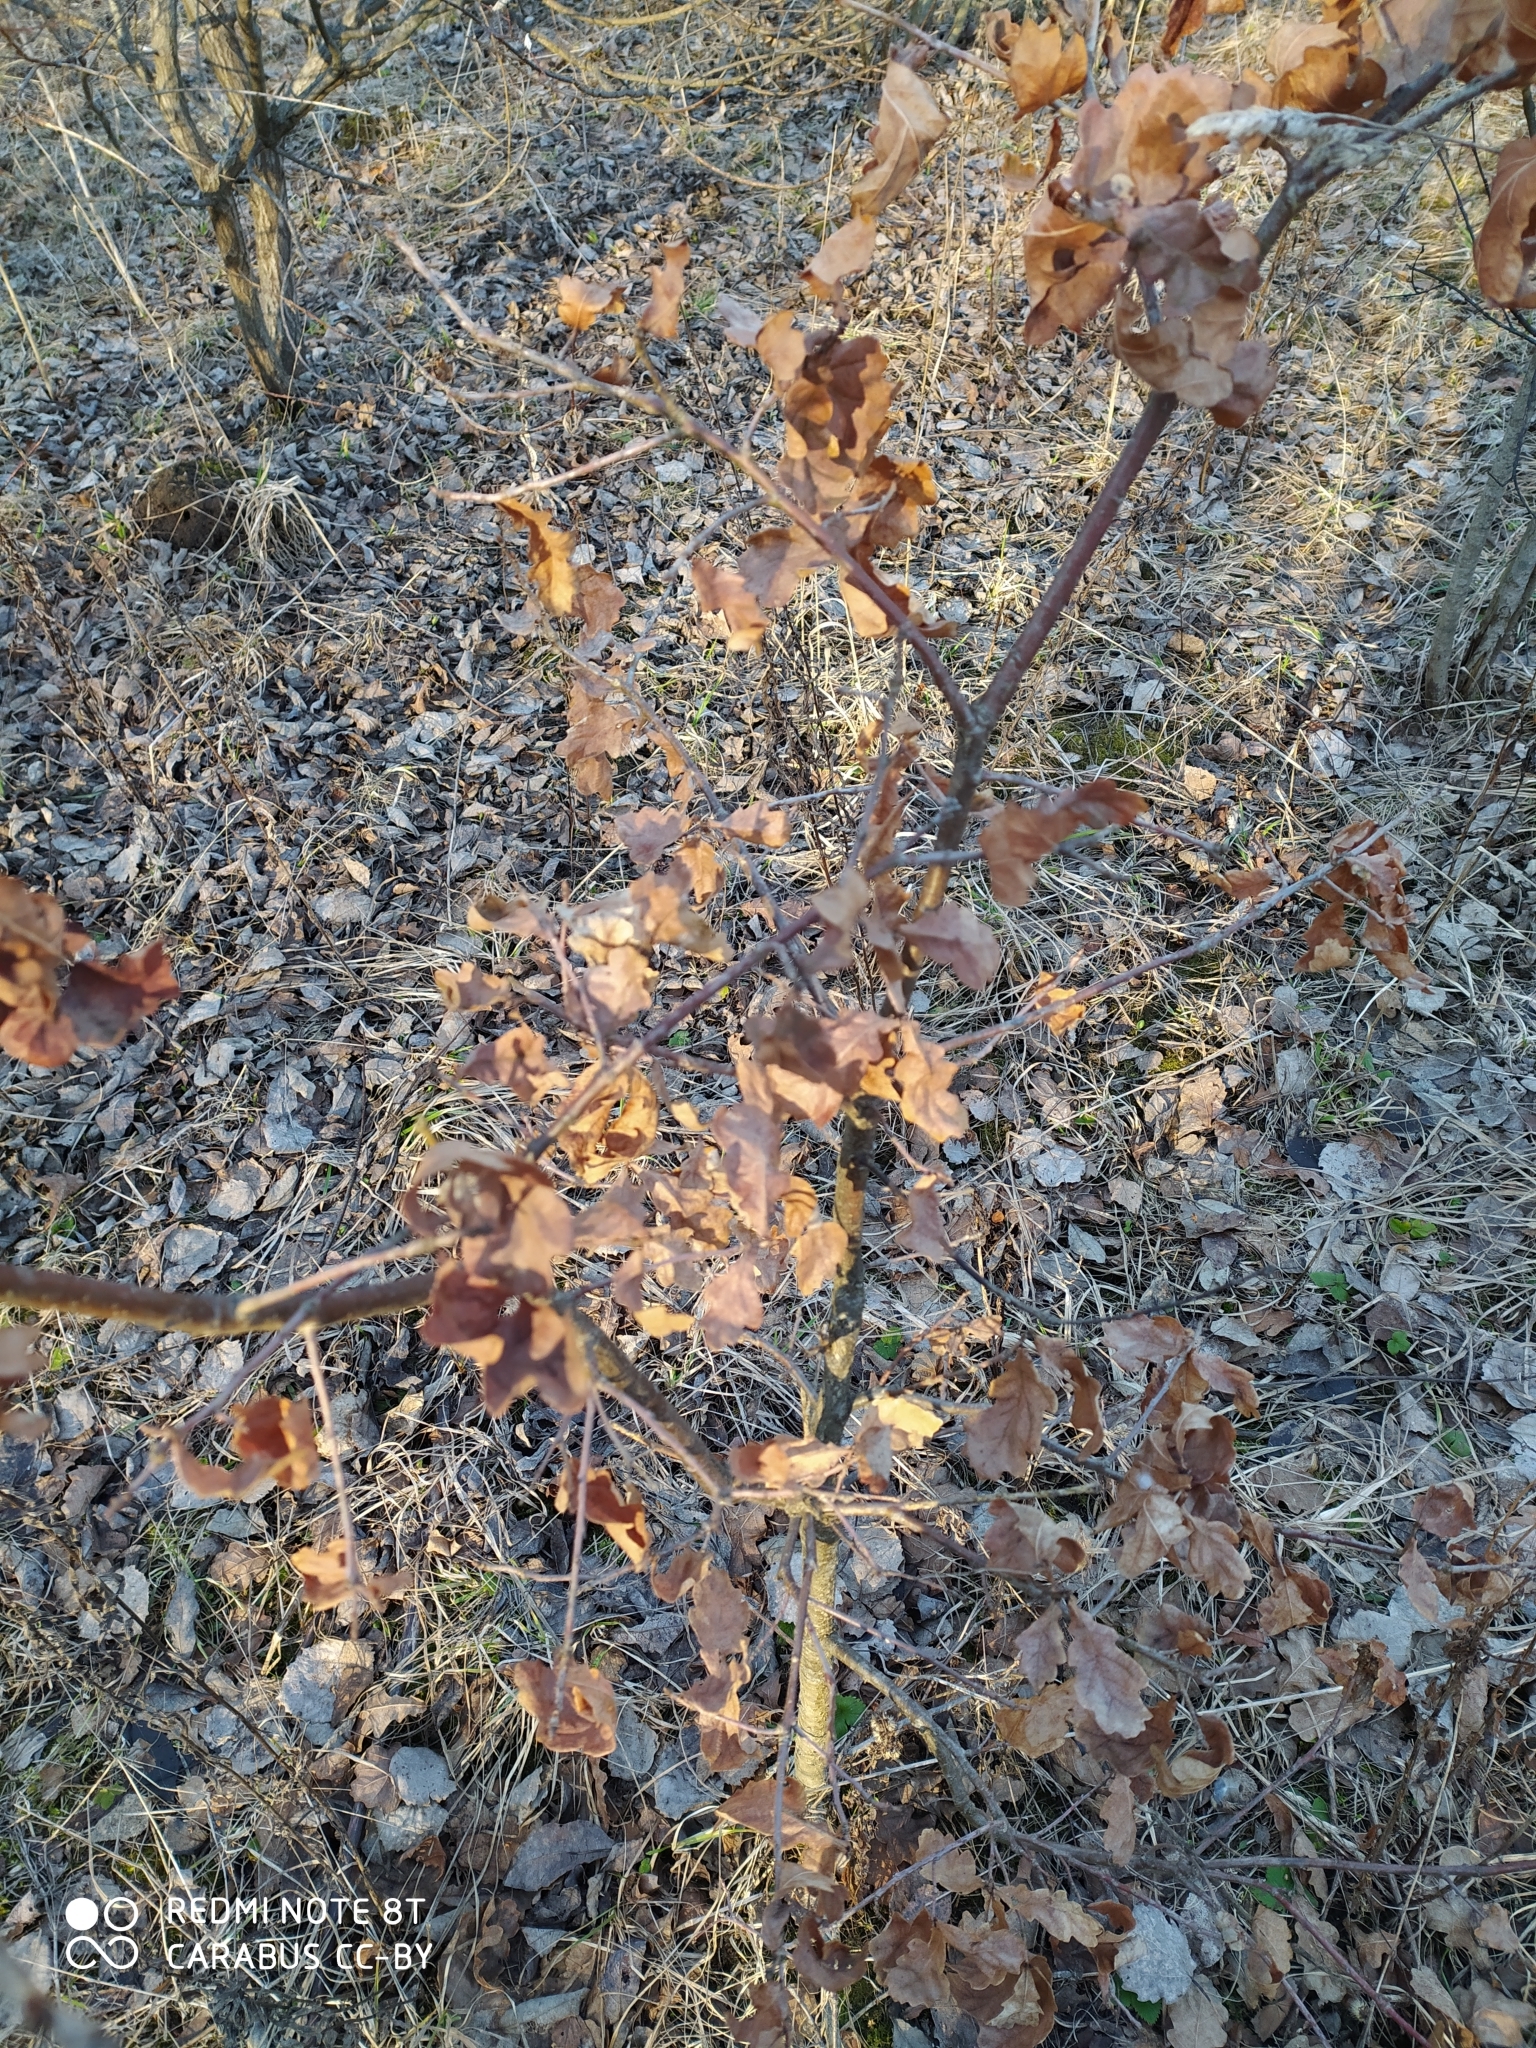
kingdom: Plantae
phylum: Tracheophyta
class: Magnoliopsida
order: Fagales
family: Fagaceae
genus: Quercus
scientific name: Quercus robur
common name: Pedunculate oak
